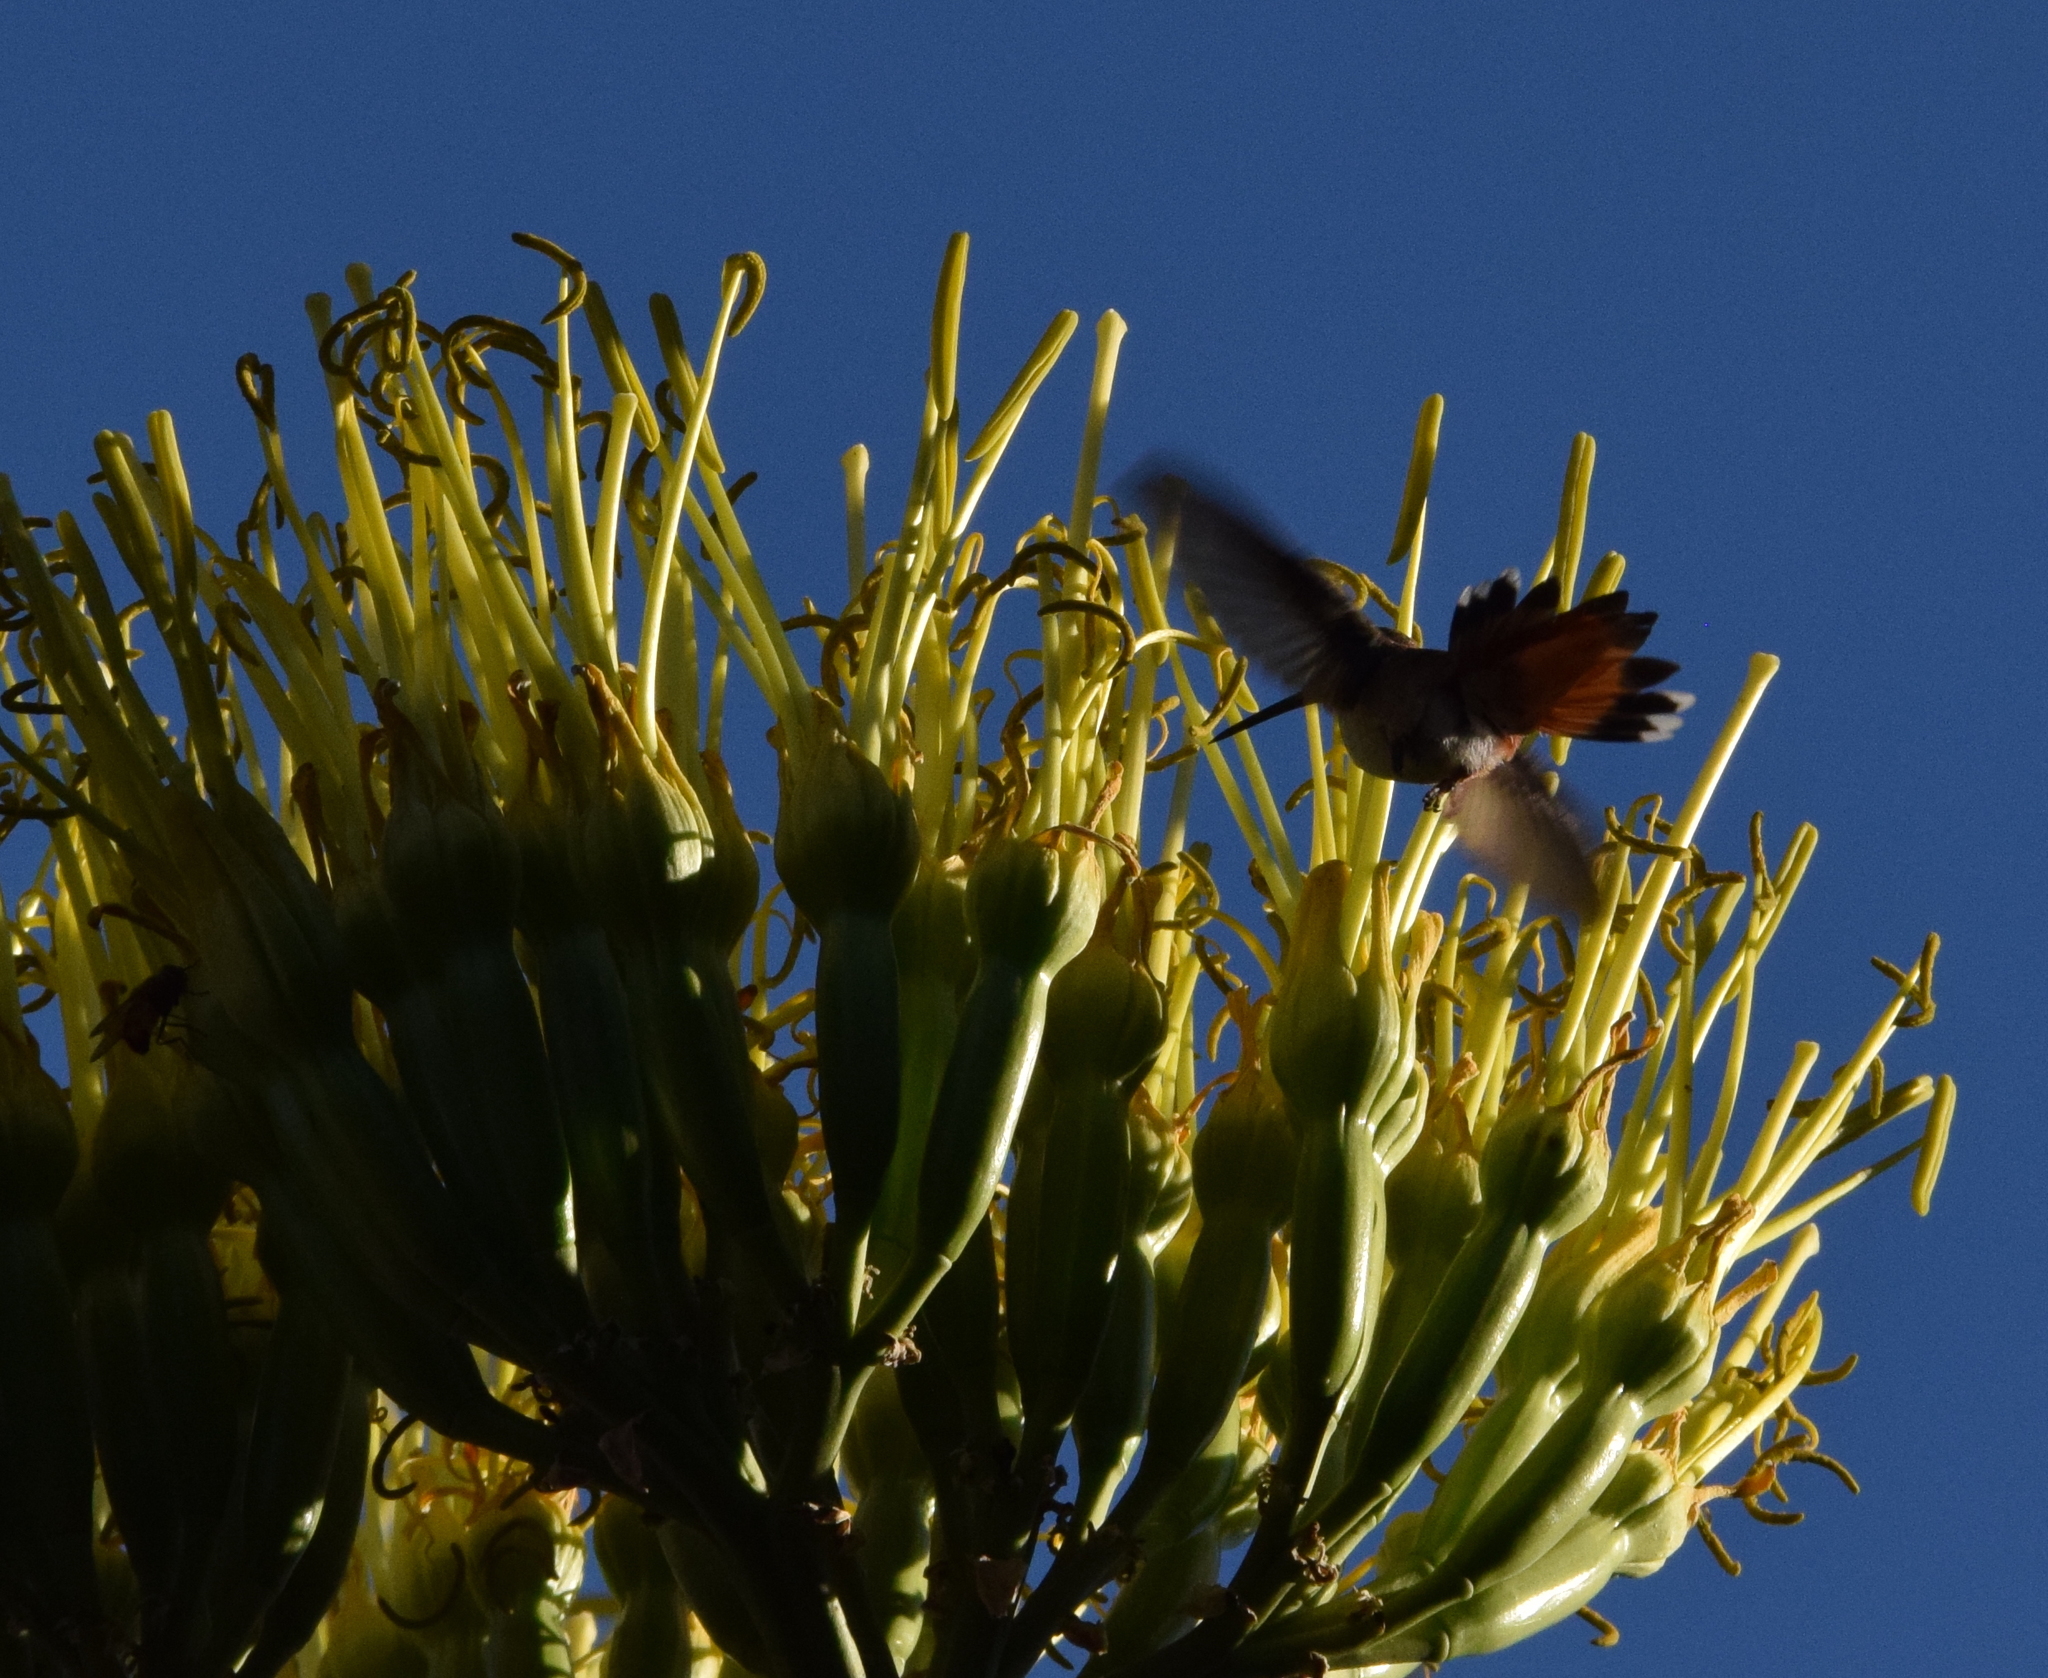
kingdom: Animalia
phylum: Chordata
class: Aves
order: Apodiformes
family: Trochilidae
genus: Selasphorus
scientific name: Selasphorus sasin
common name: Allen's hummingbird
